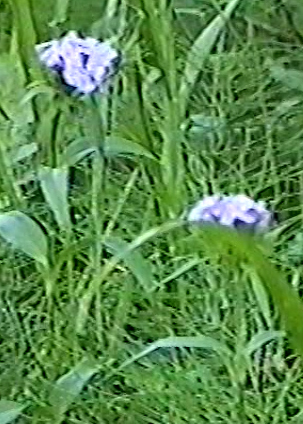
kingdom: Plantae
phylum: Tracheophyta
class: Magnoliopsida
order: Caryophyllales
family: Caryophyllaceae
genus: Dianthus
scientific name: Dianthus barbatus
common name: Sweet-william
